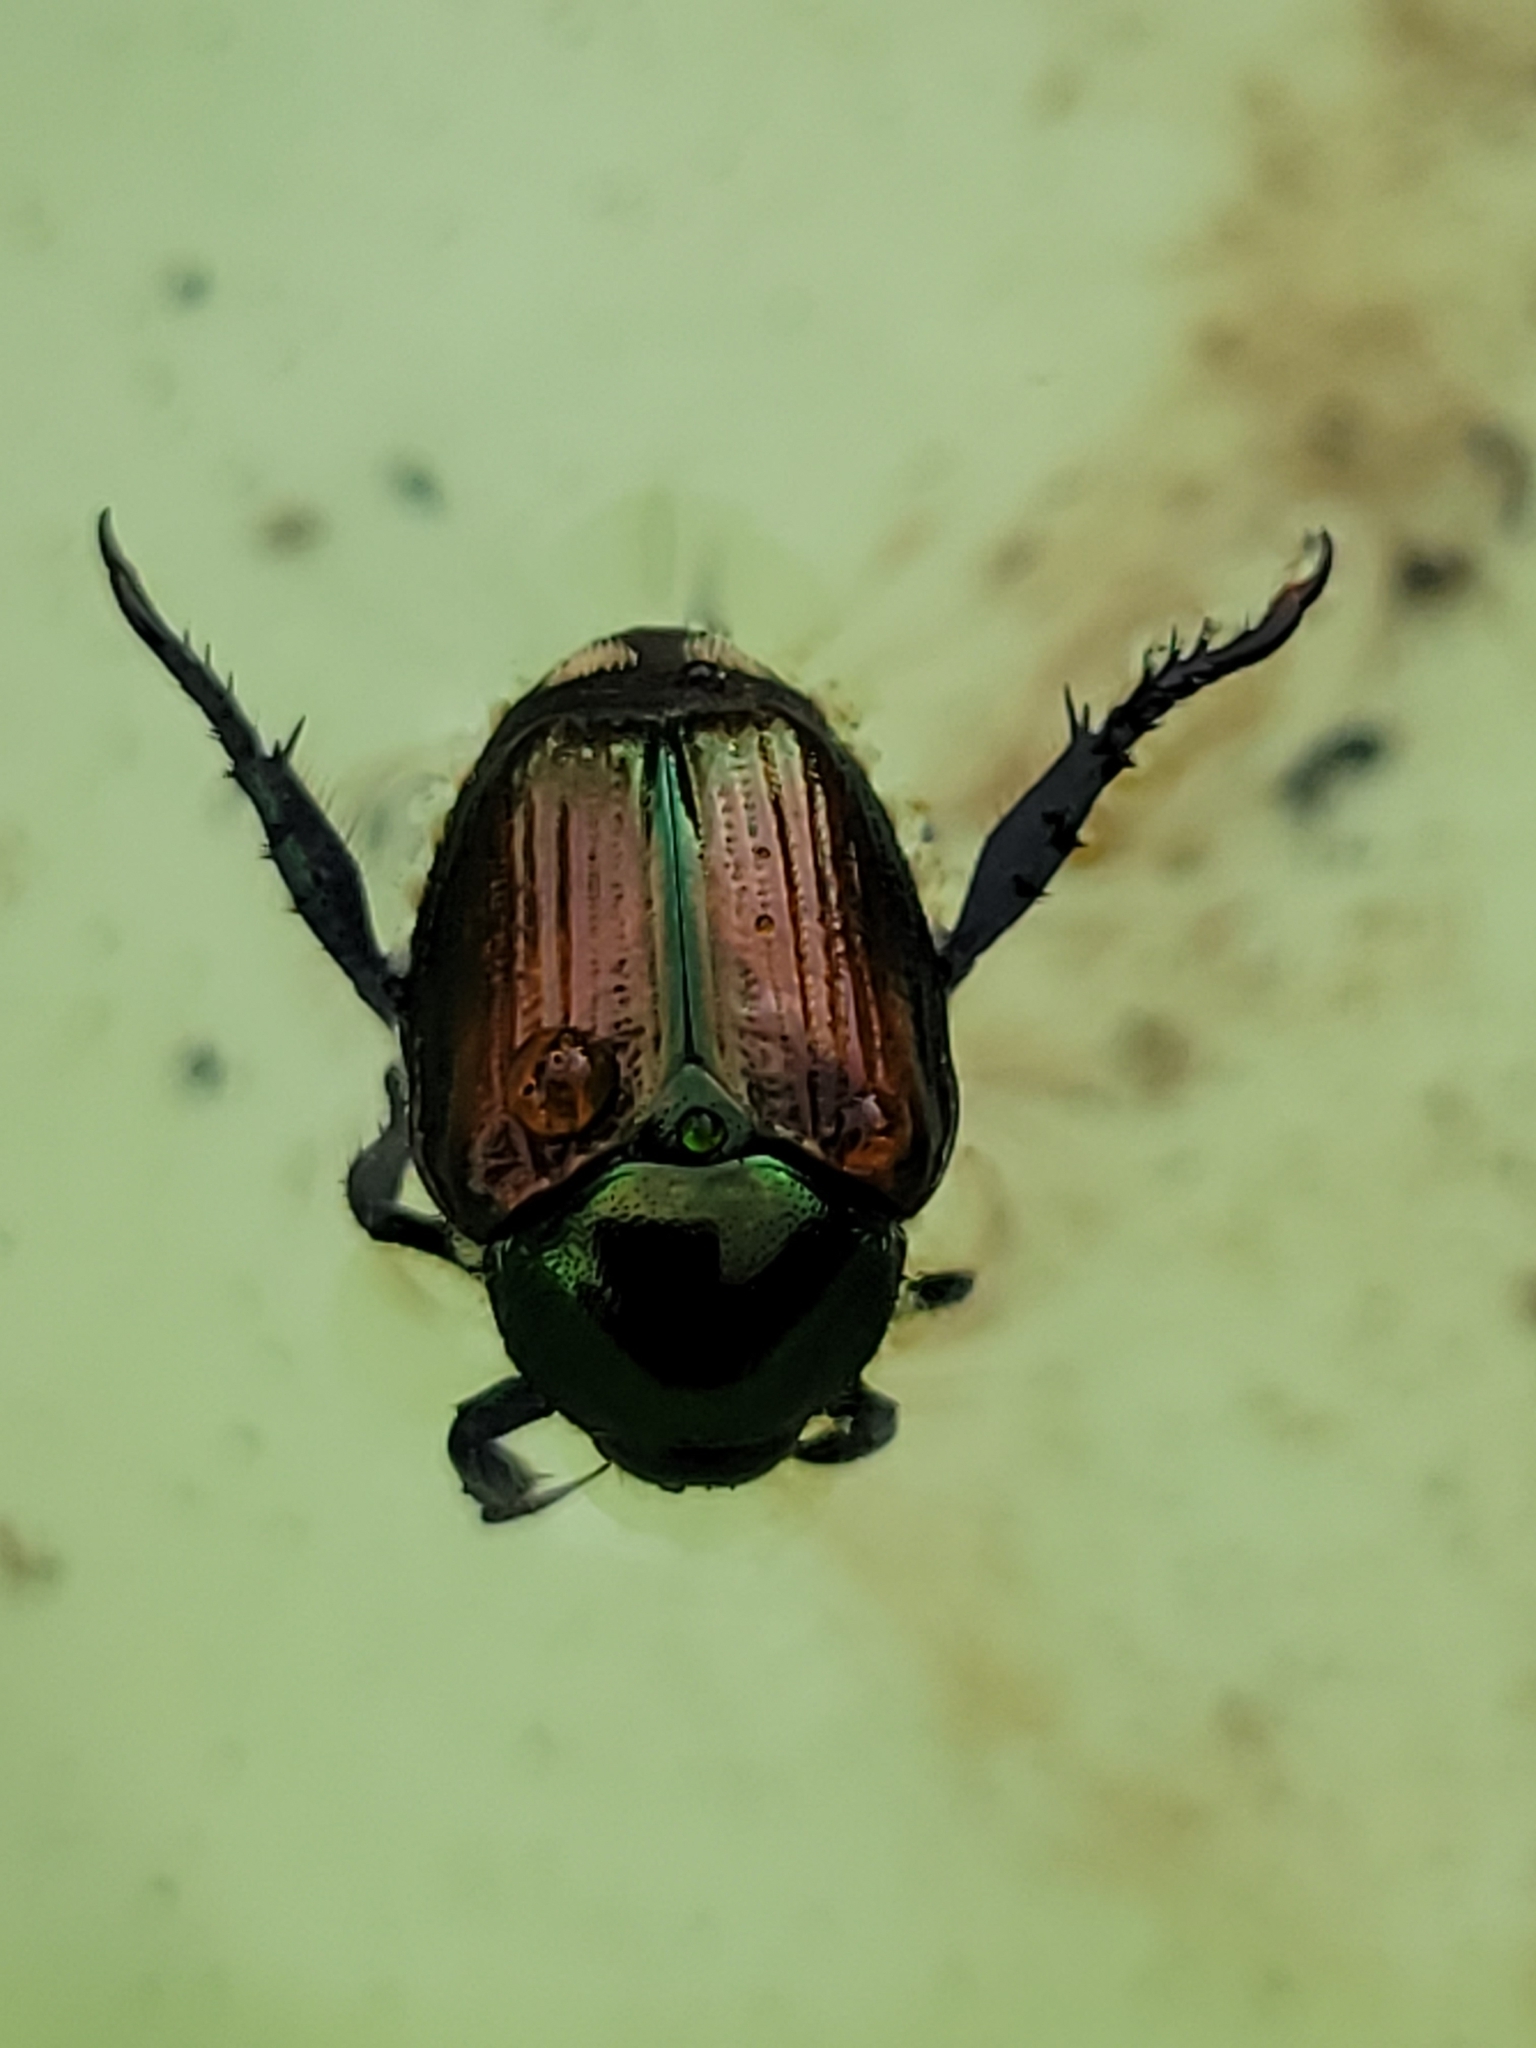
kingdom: Animalia
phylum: Arthropoda
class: Insecta
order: Coleoptera
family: Scarabaeidae
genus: Popillia
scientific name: Popillia japonica
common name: Japanese beetle
